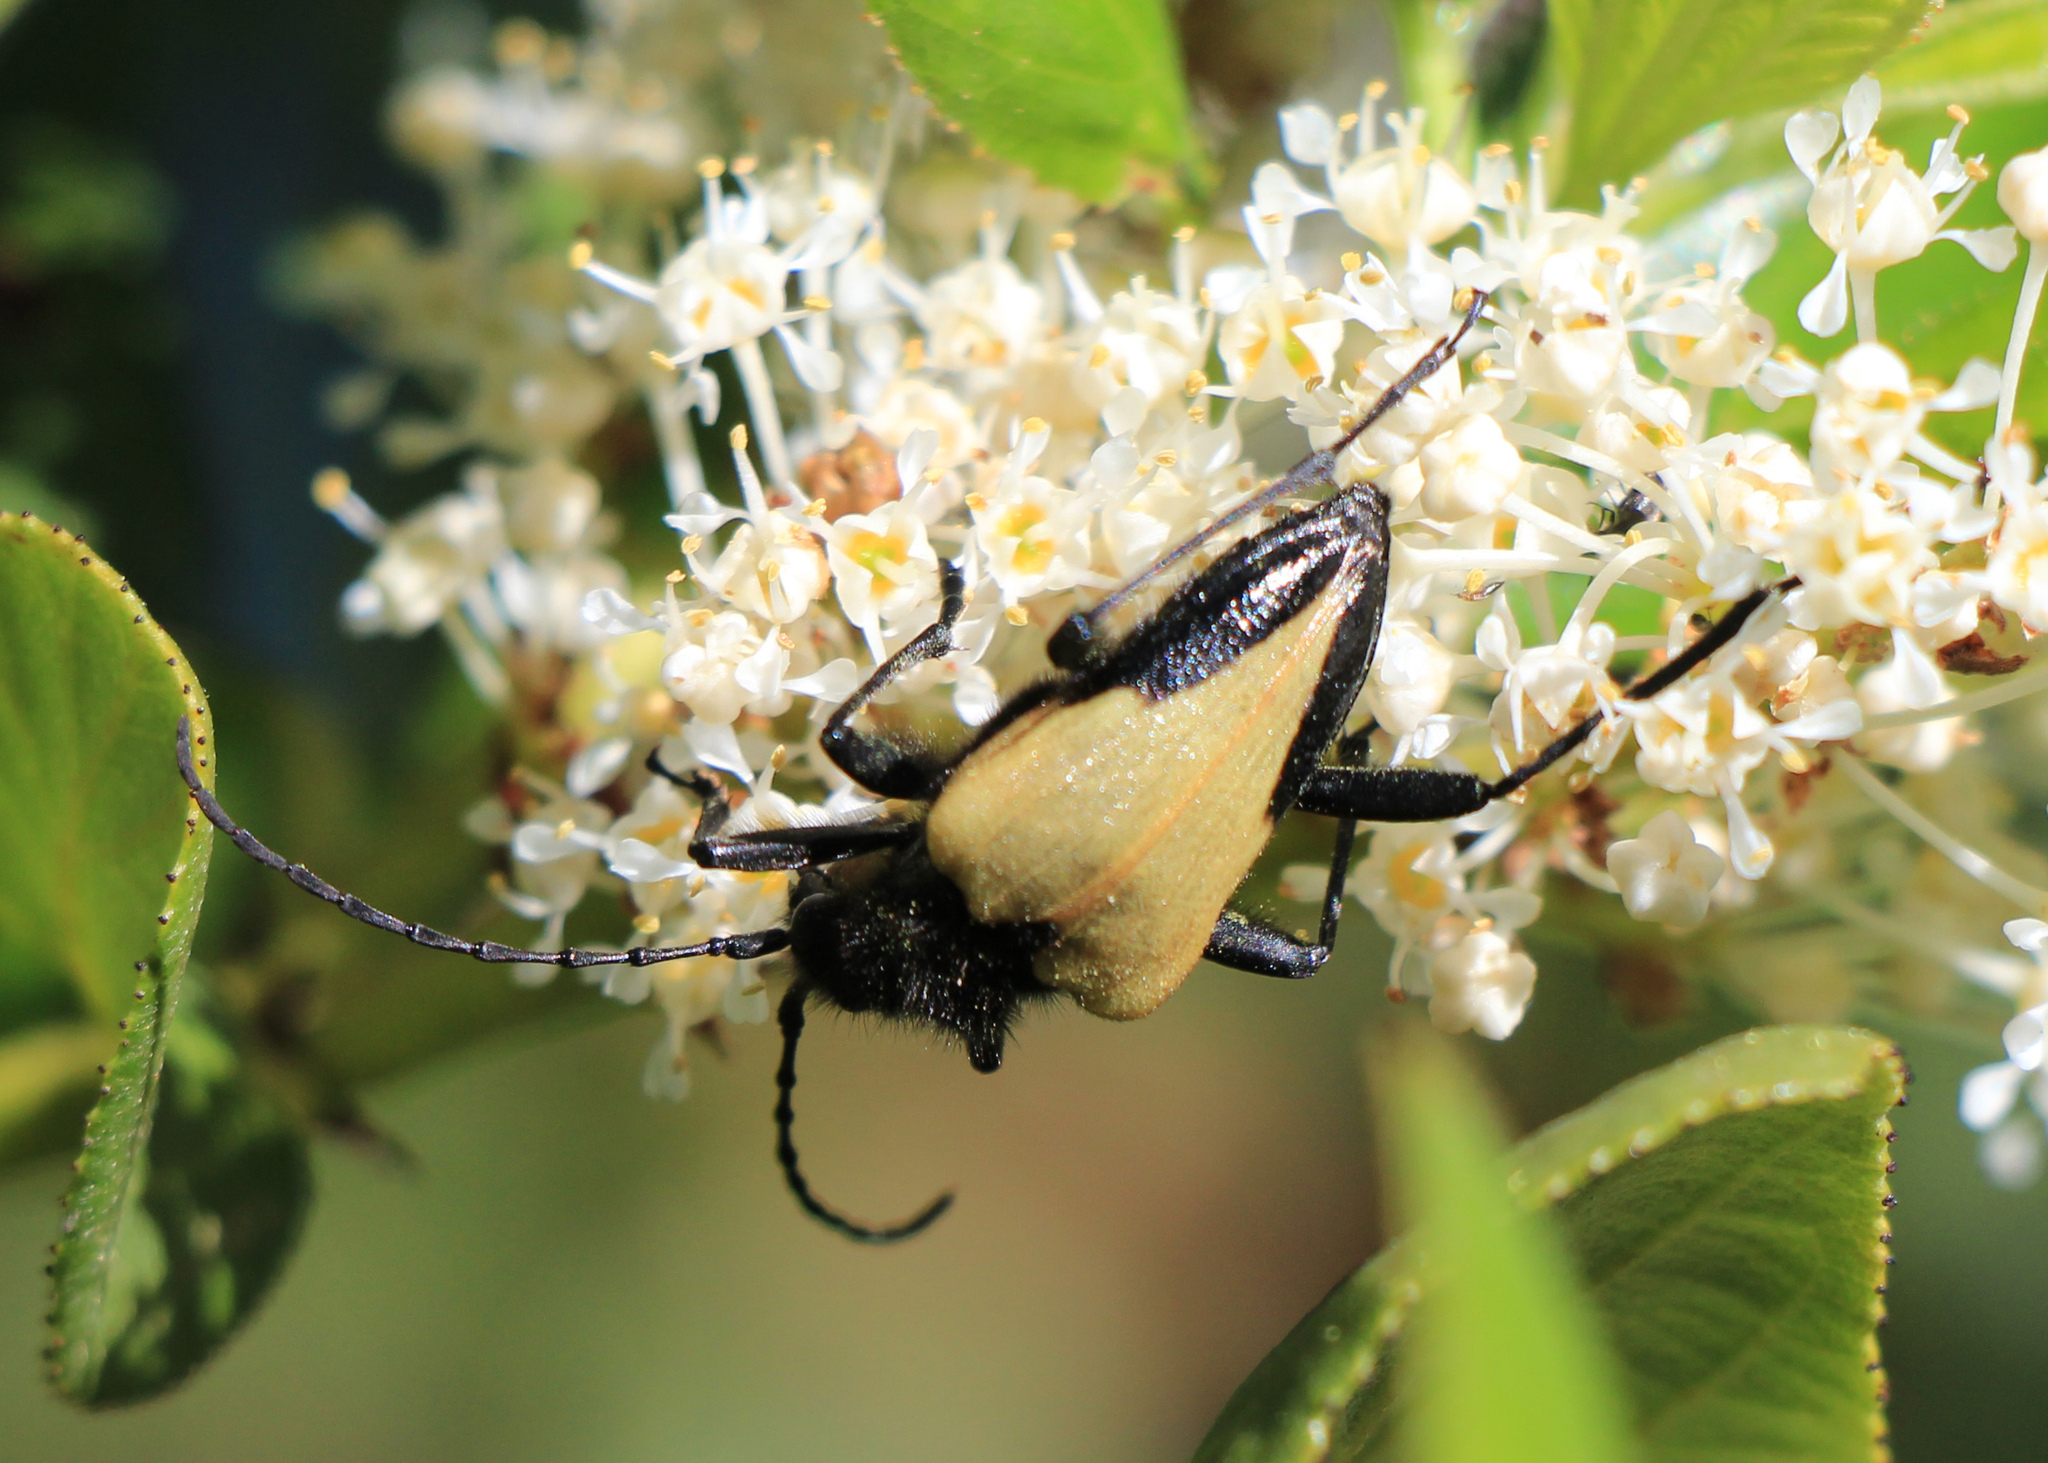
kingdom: Animalia
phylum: Arthropoda
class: Insecta
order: Coleoptera
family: Cerambycidae
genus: Pachyta
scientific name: Pachyta armata
